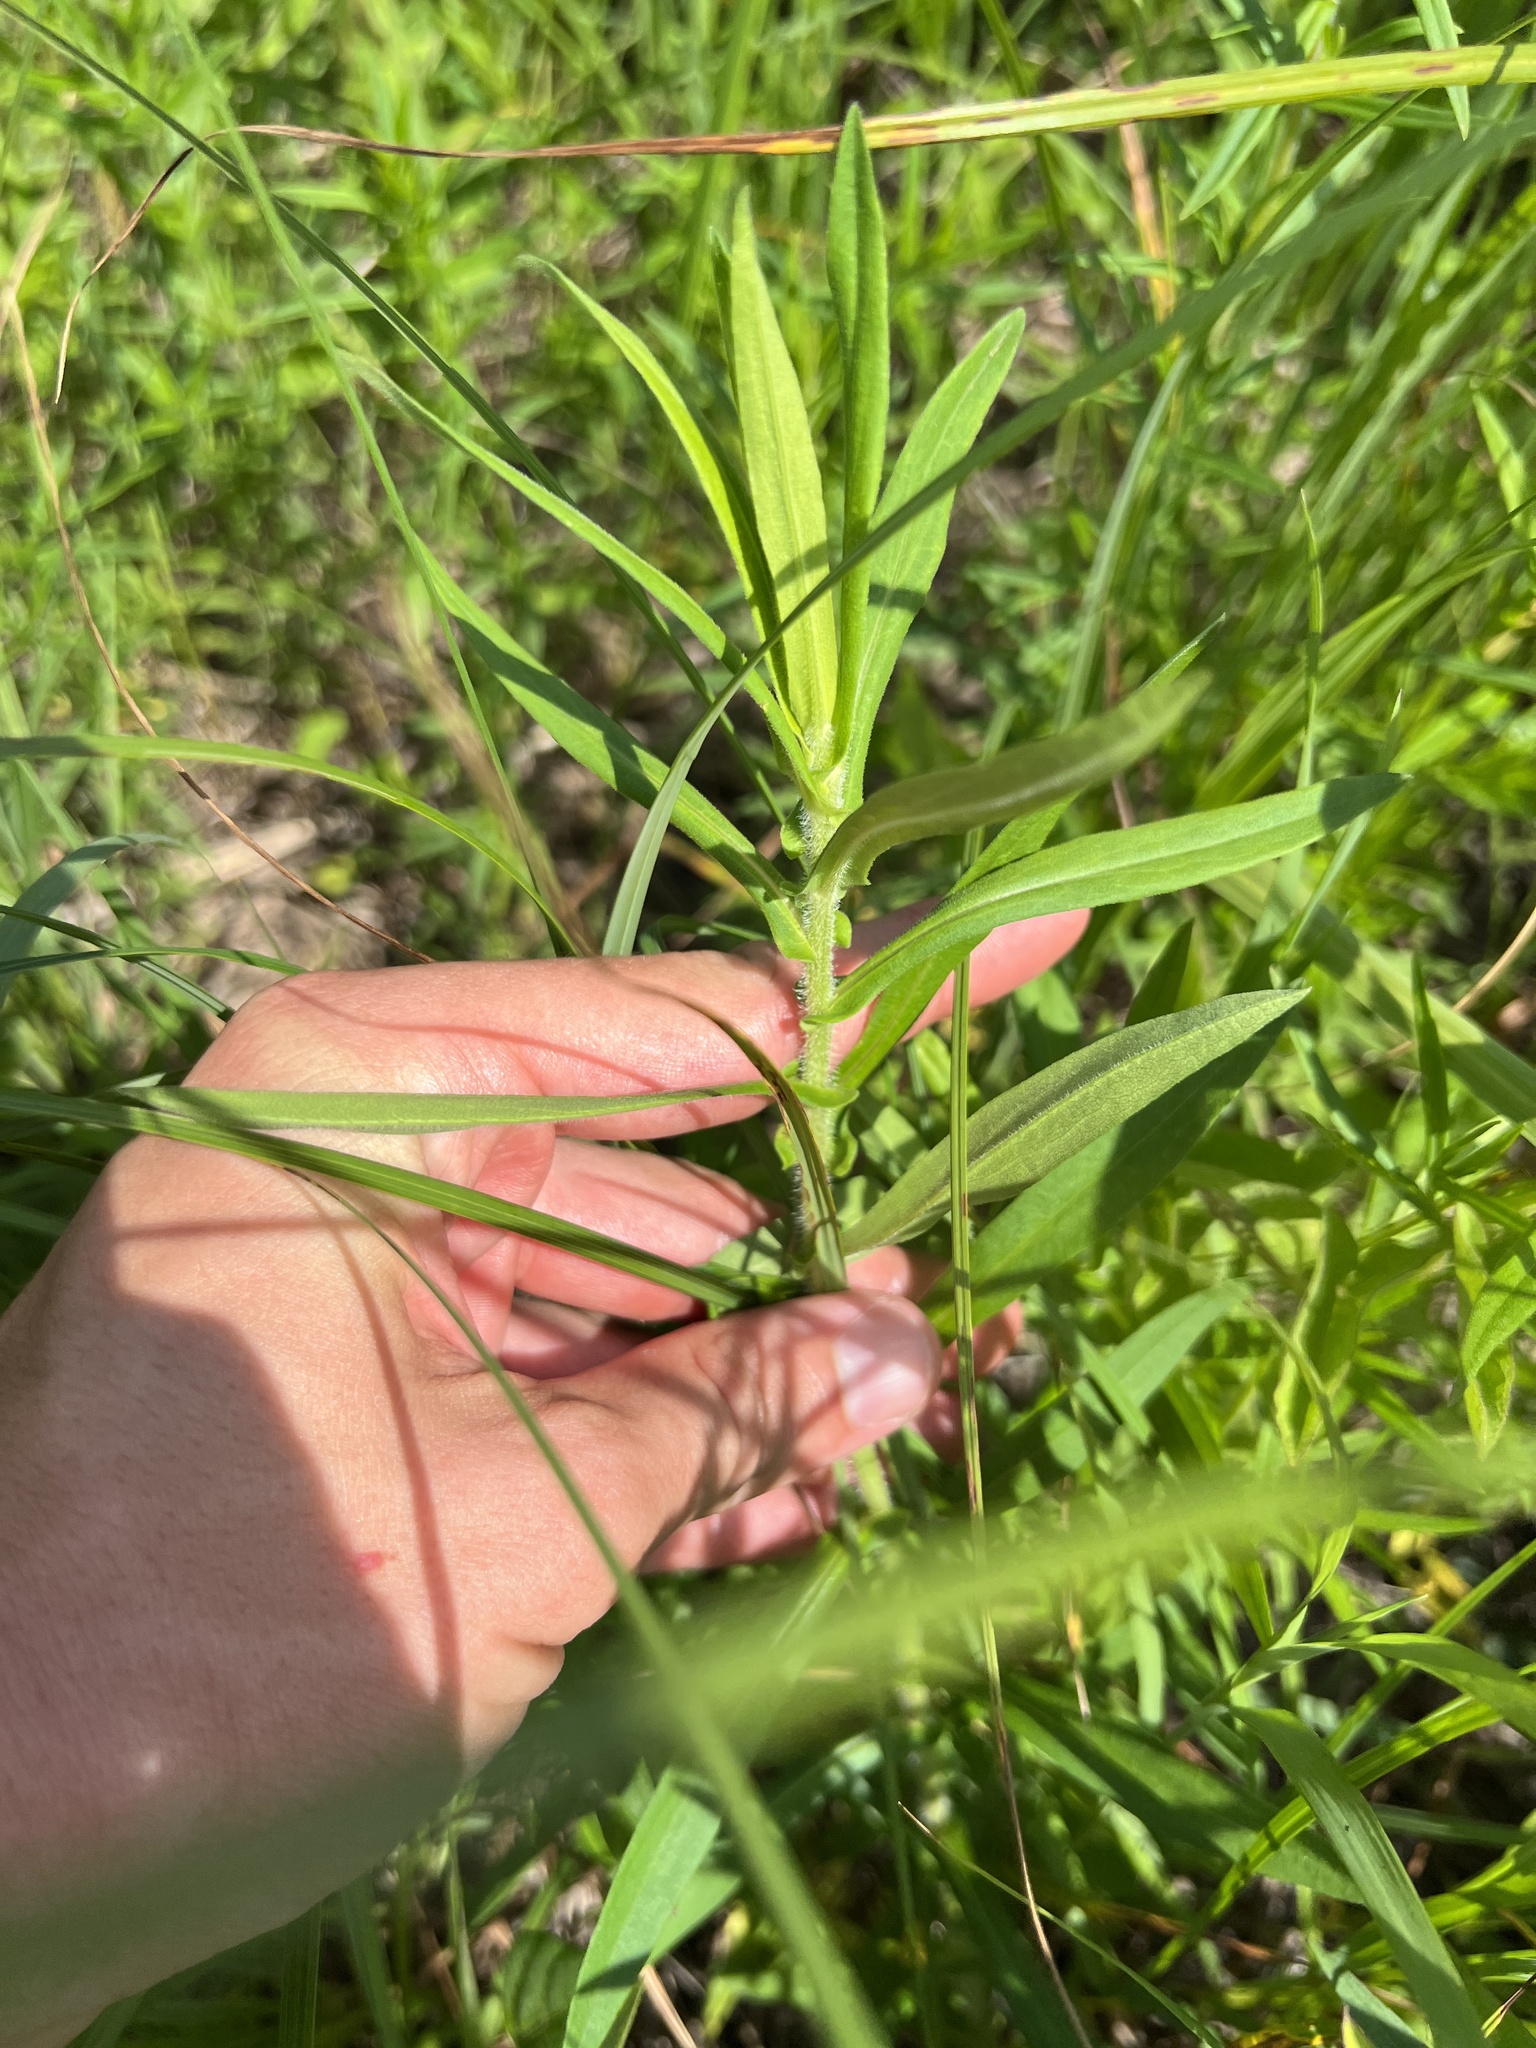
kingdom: Plantae
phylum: Tracheophyta
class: Magnoliopsida
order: Asterales
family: Asteraceae
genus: Symphyotrichum
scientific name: Symphyotrichum novae-angliae
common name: Michaelmas daisy
